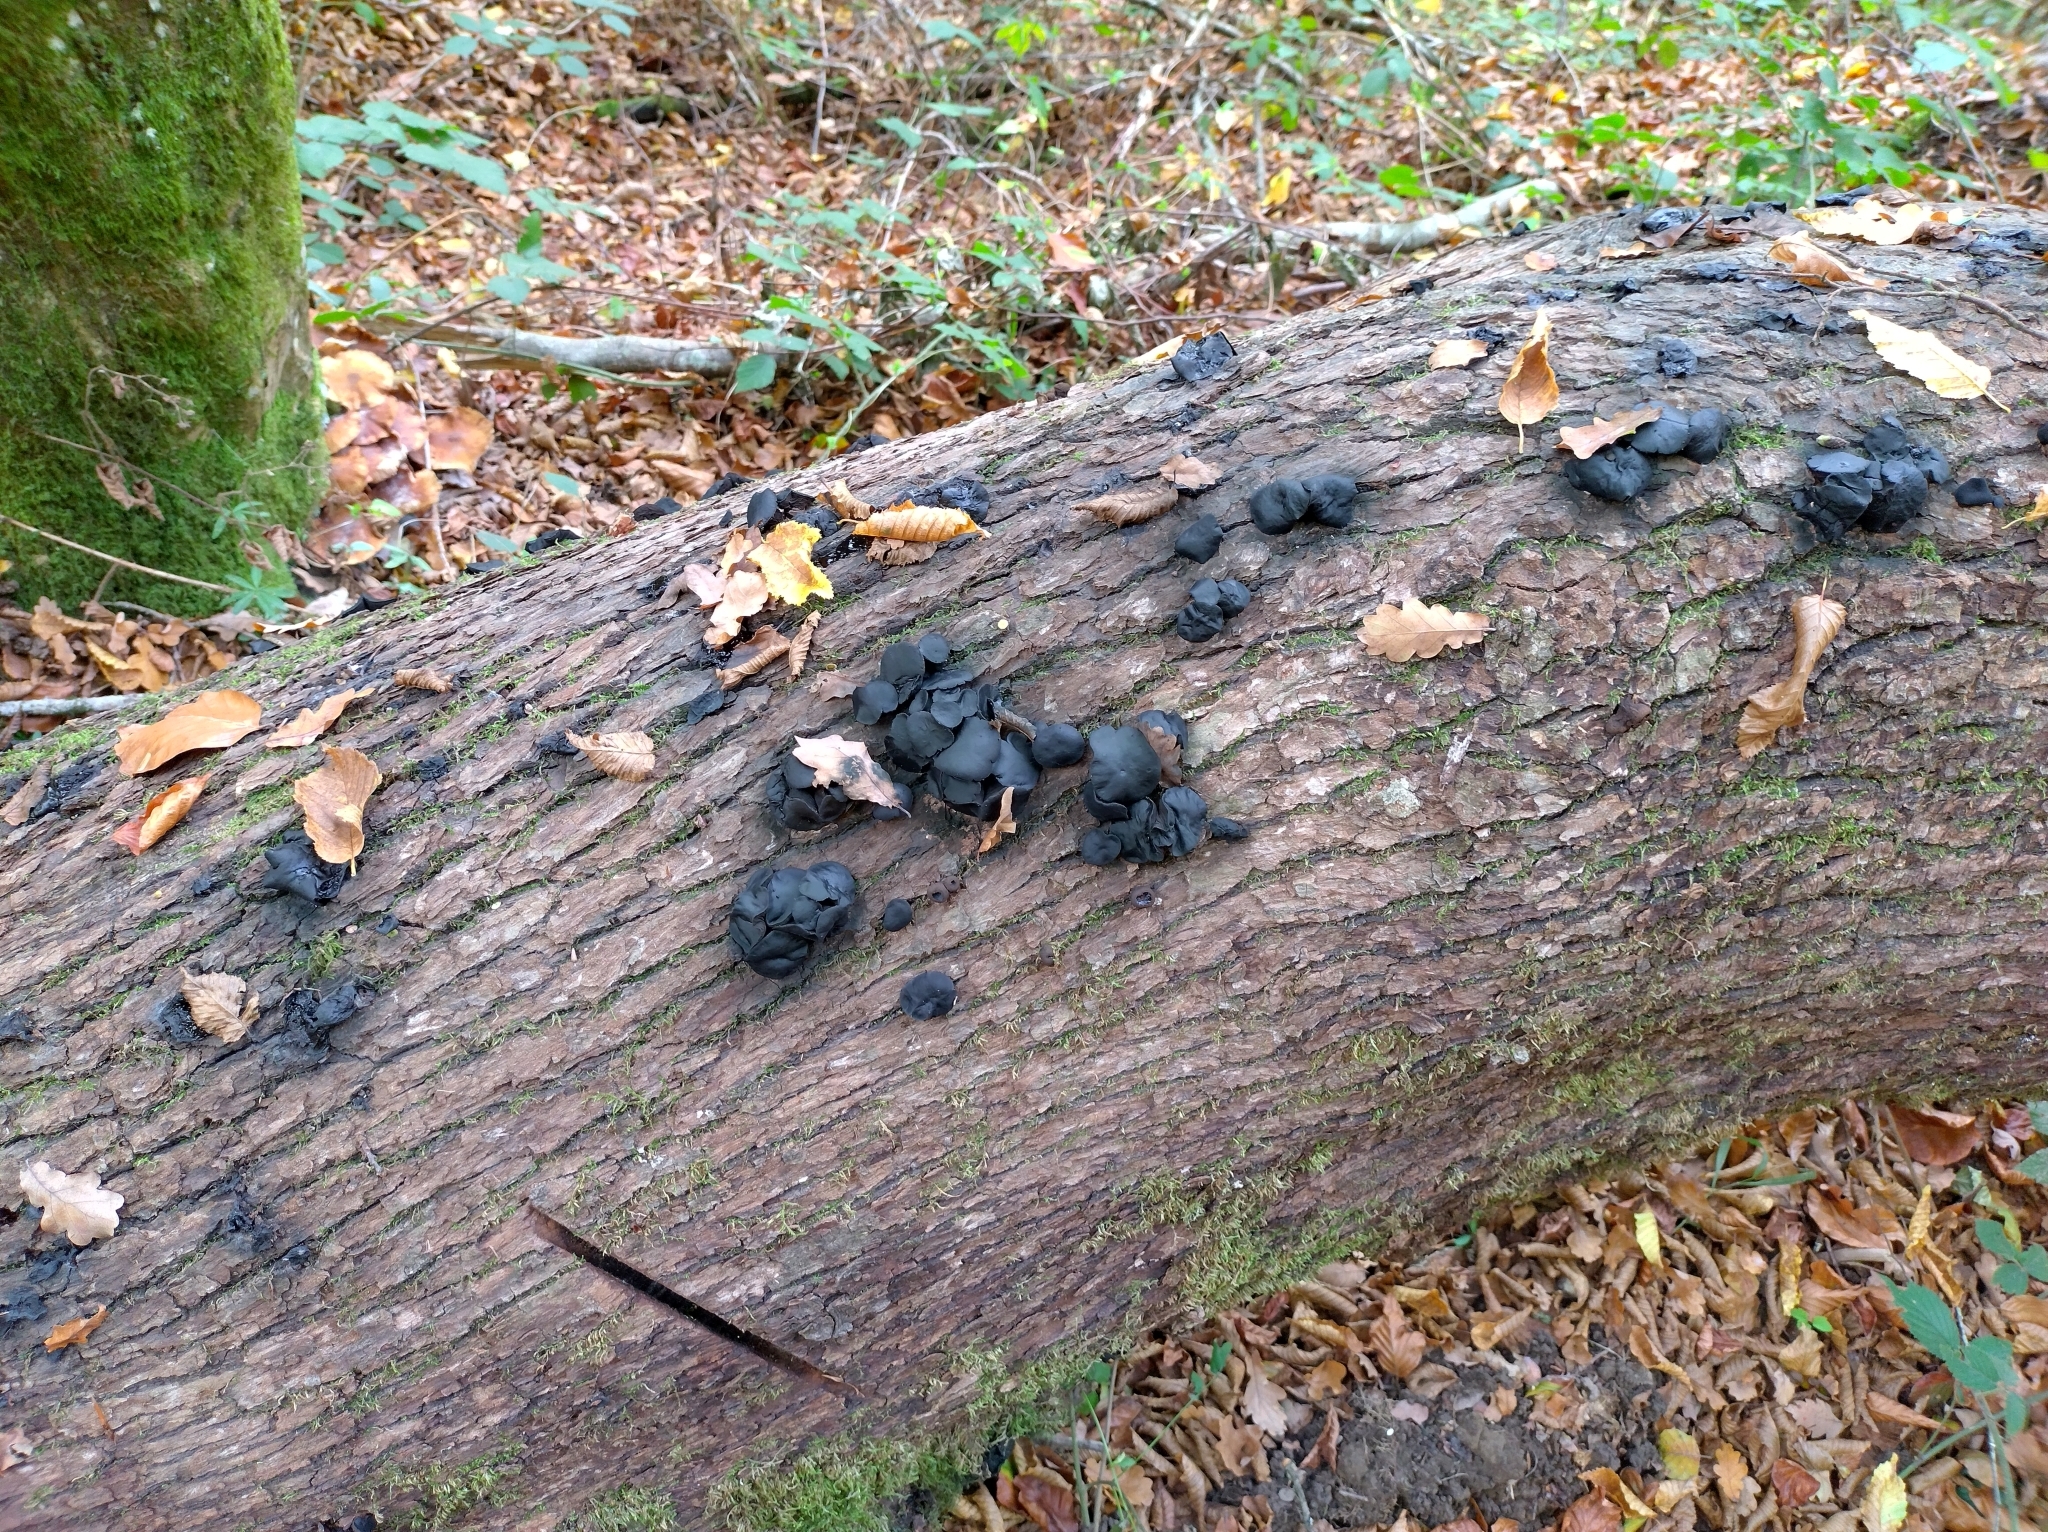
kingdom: Fungi
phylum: Ascomycota
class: Leotiomycetes
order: Phacidiales
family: Phacidiaceae
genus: Bulgaria
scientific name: Bulgaria inquinans
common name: Black bulgar
